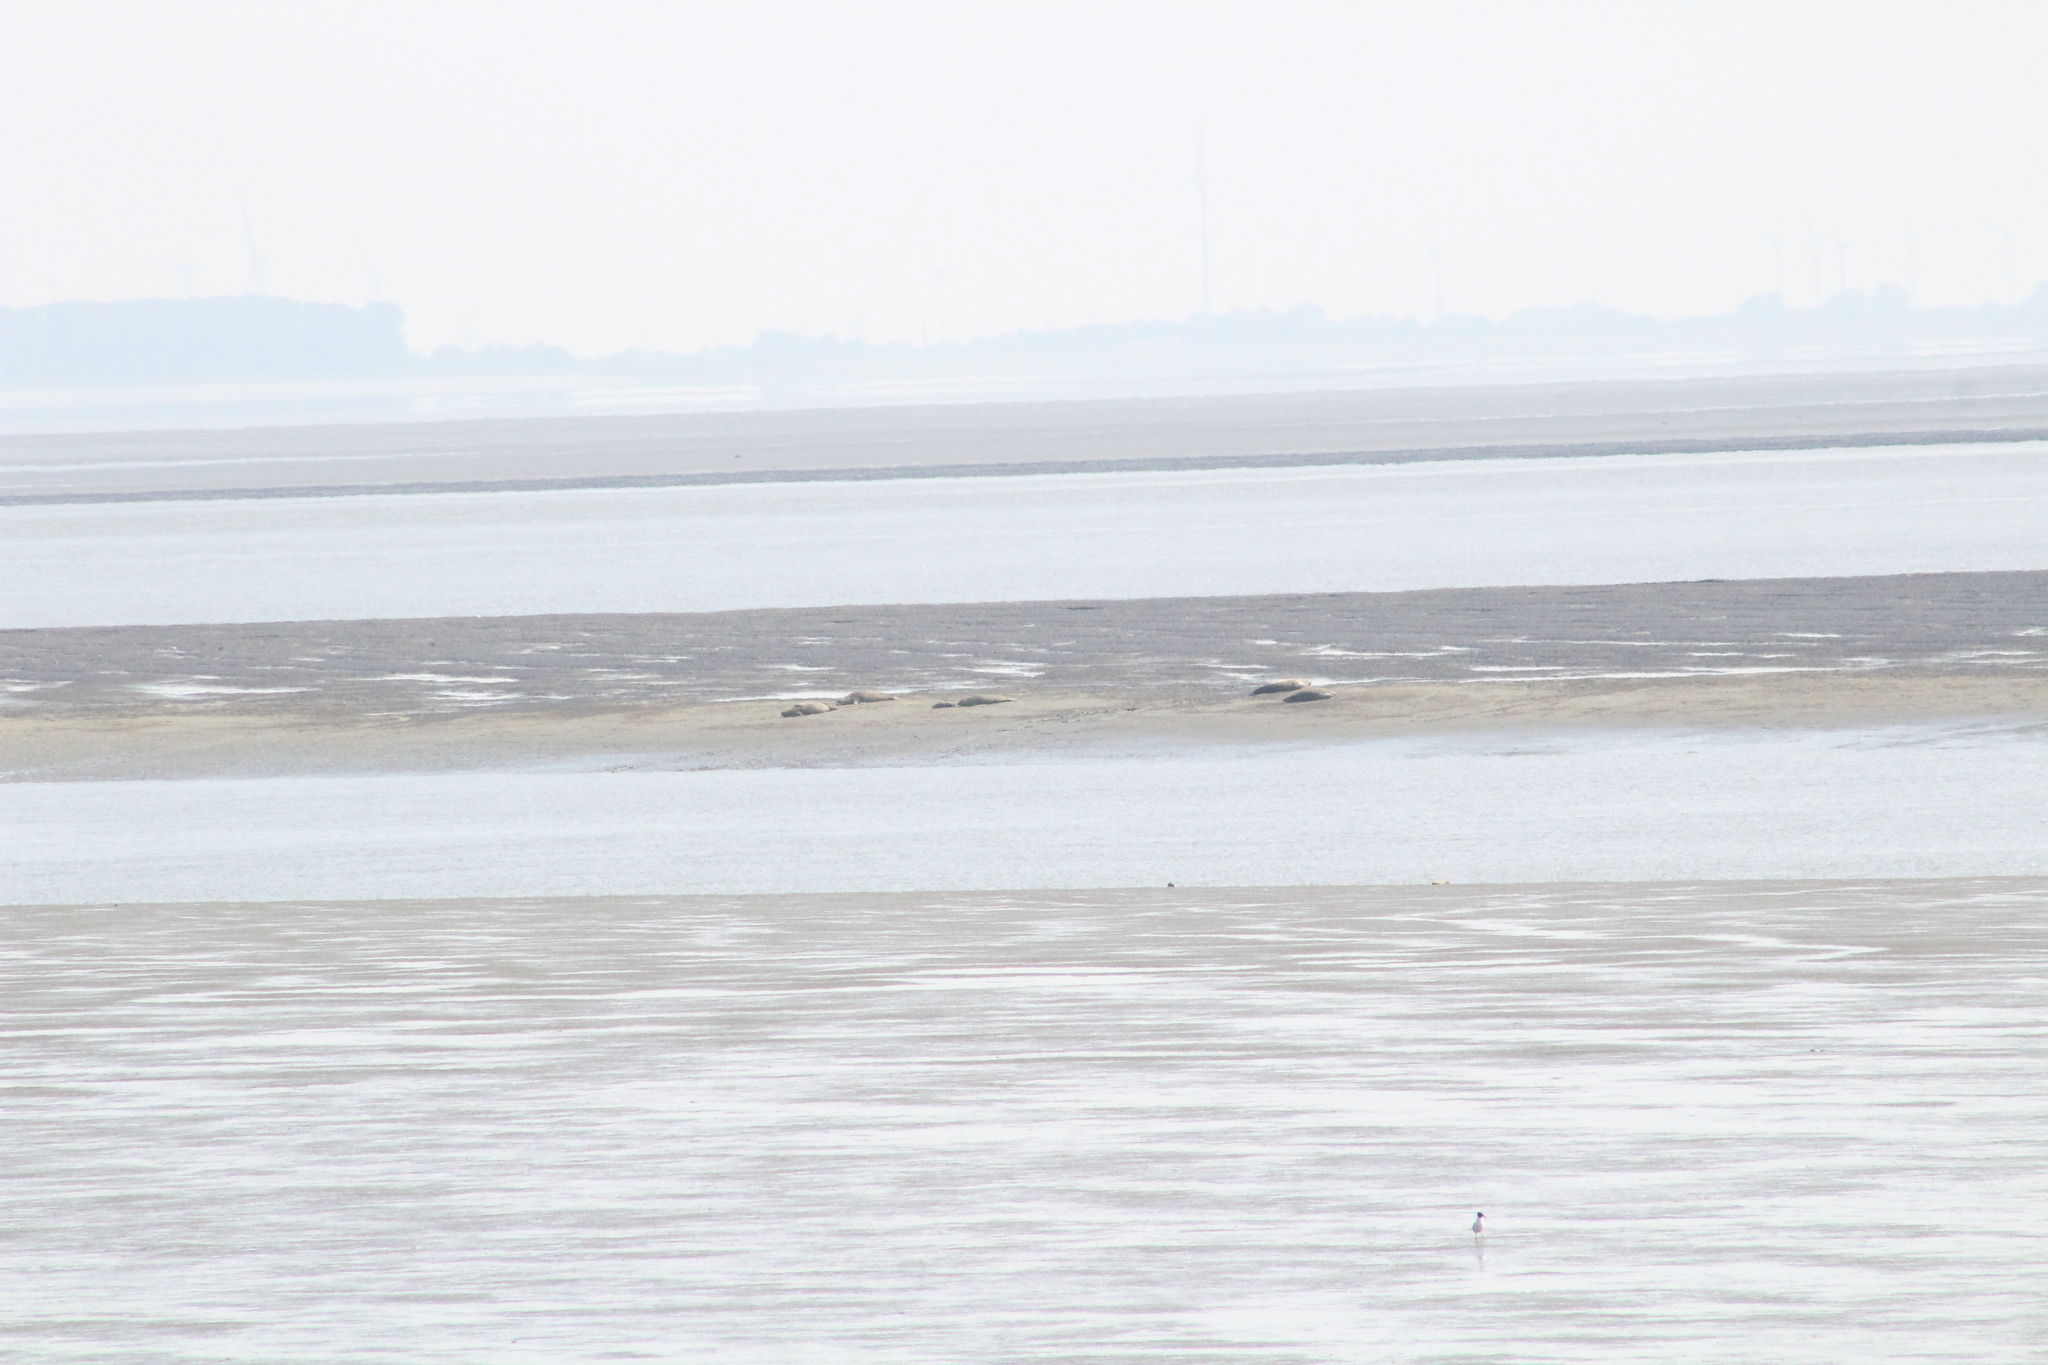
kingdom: Animalia
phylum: Chordata
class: Mammalia
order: Carnivora
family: Phocidae
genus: Phoca
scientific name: Phoca vitulina
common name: Harbor seal
